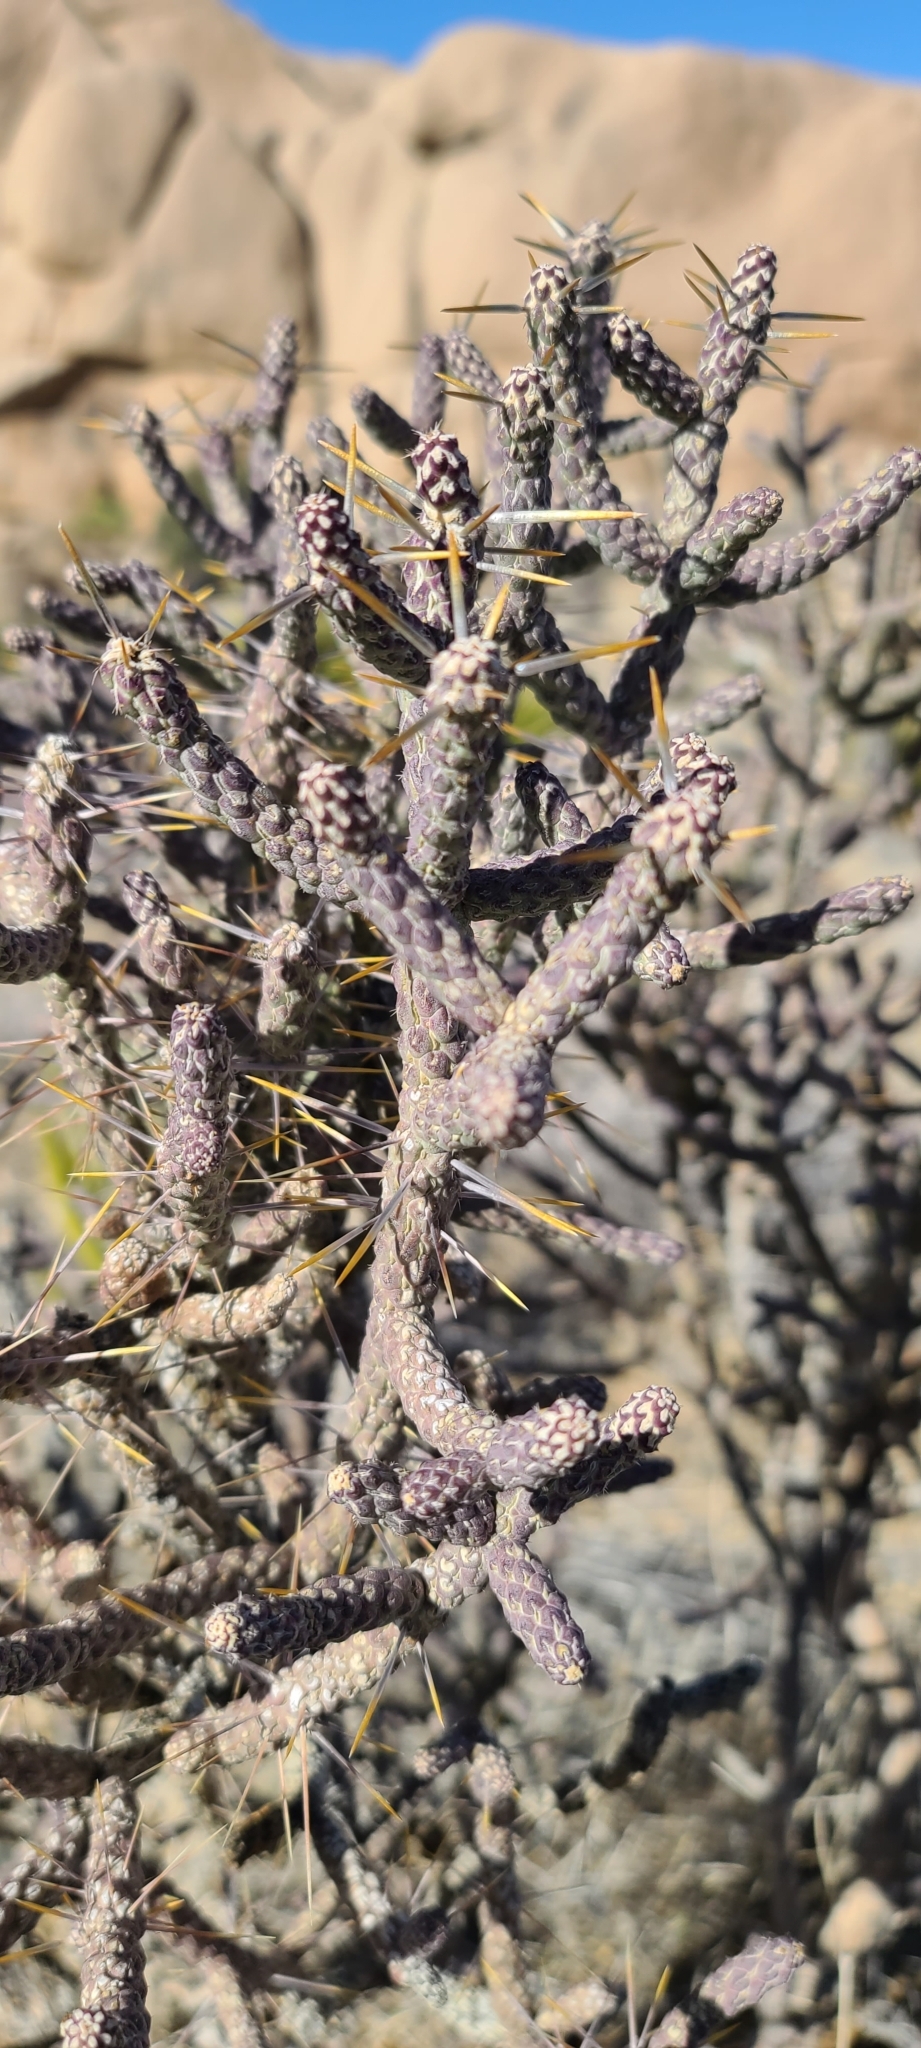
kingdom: Plantae
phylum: Tracheophyta
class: Magnoliopsida
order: Caryophyllales
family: Cactaceae
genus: Cylindropuntia
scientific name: Cylindropuntia ramosissima
